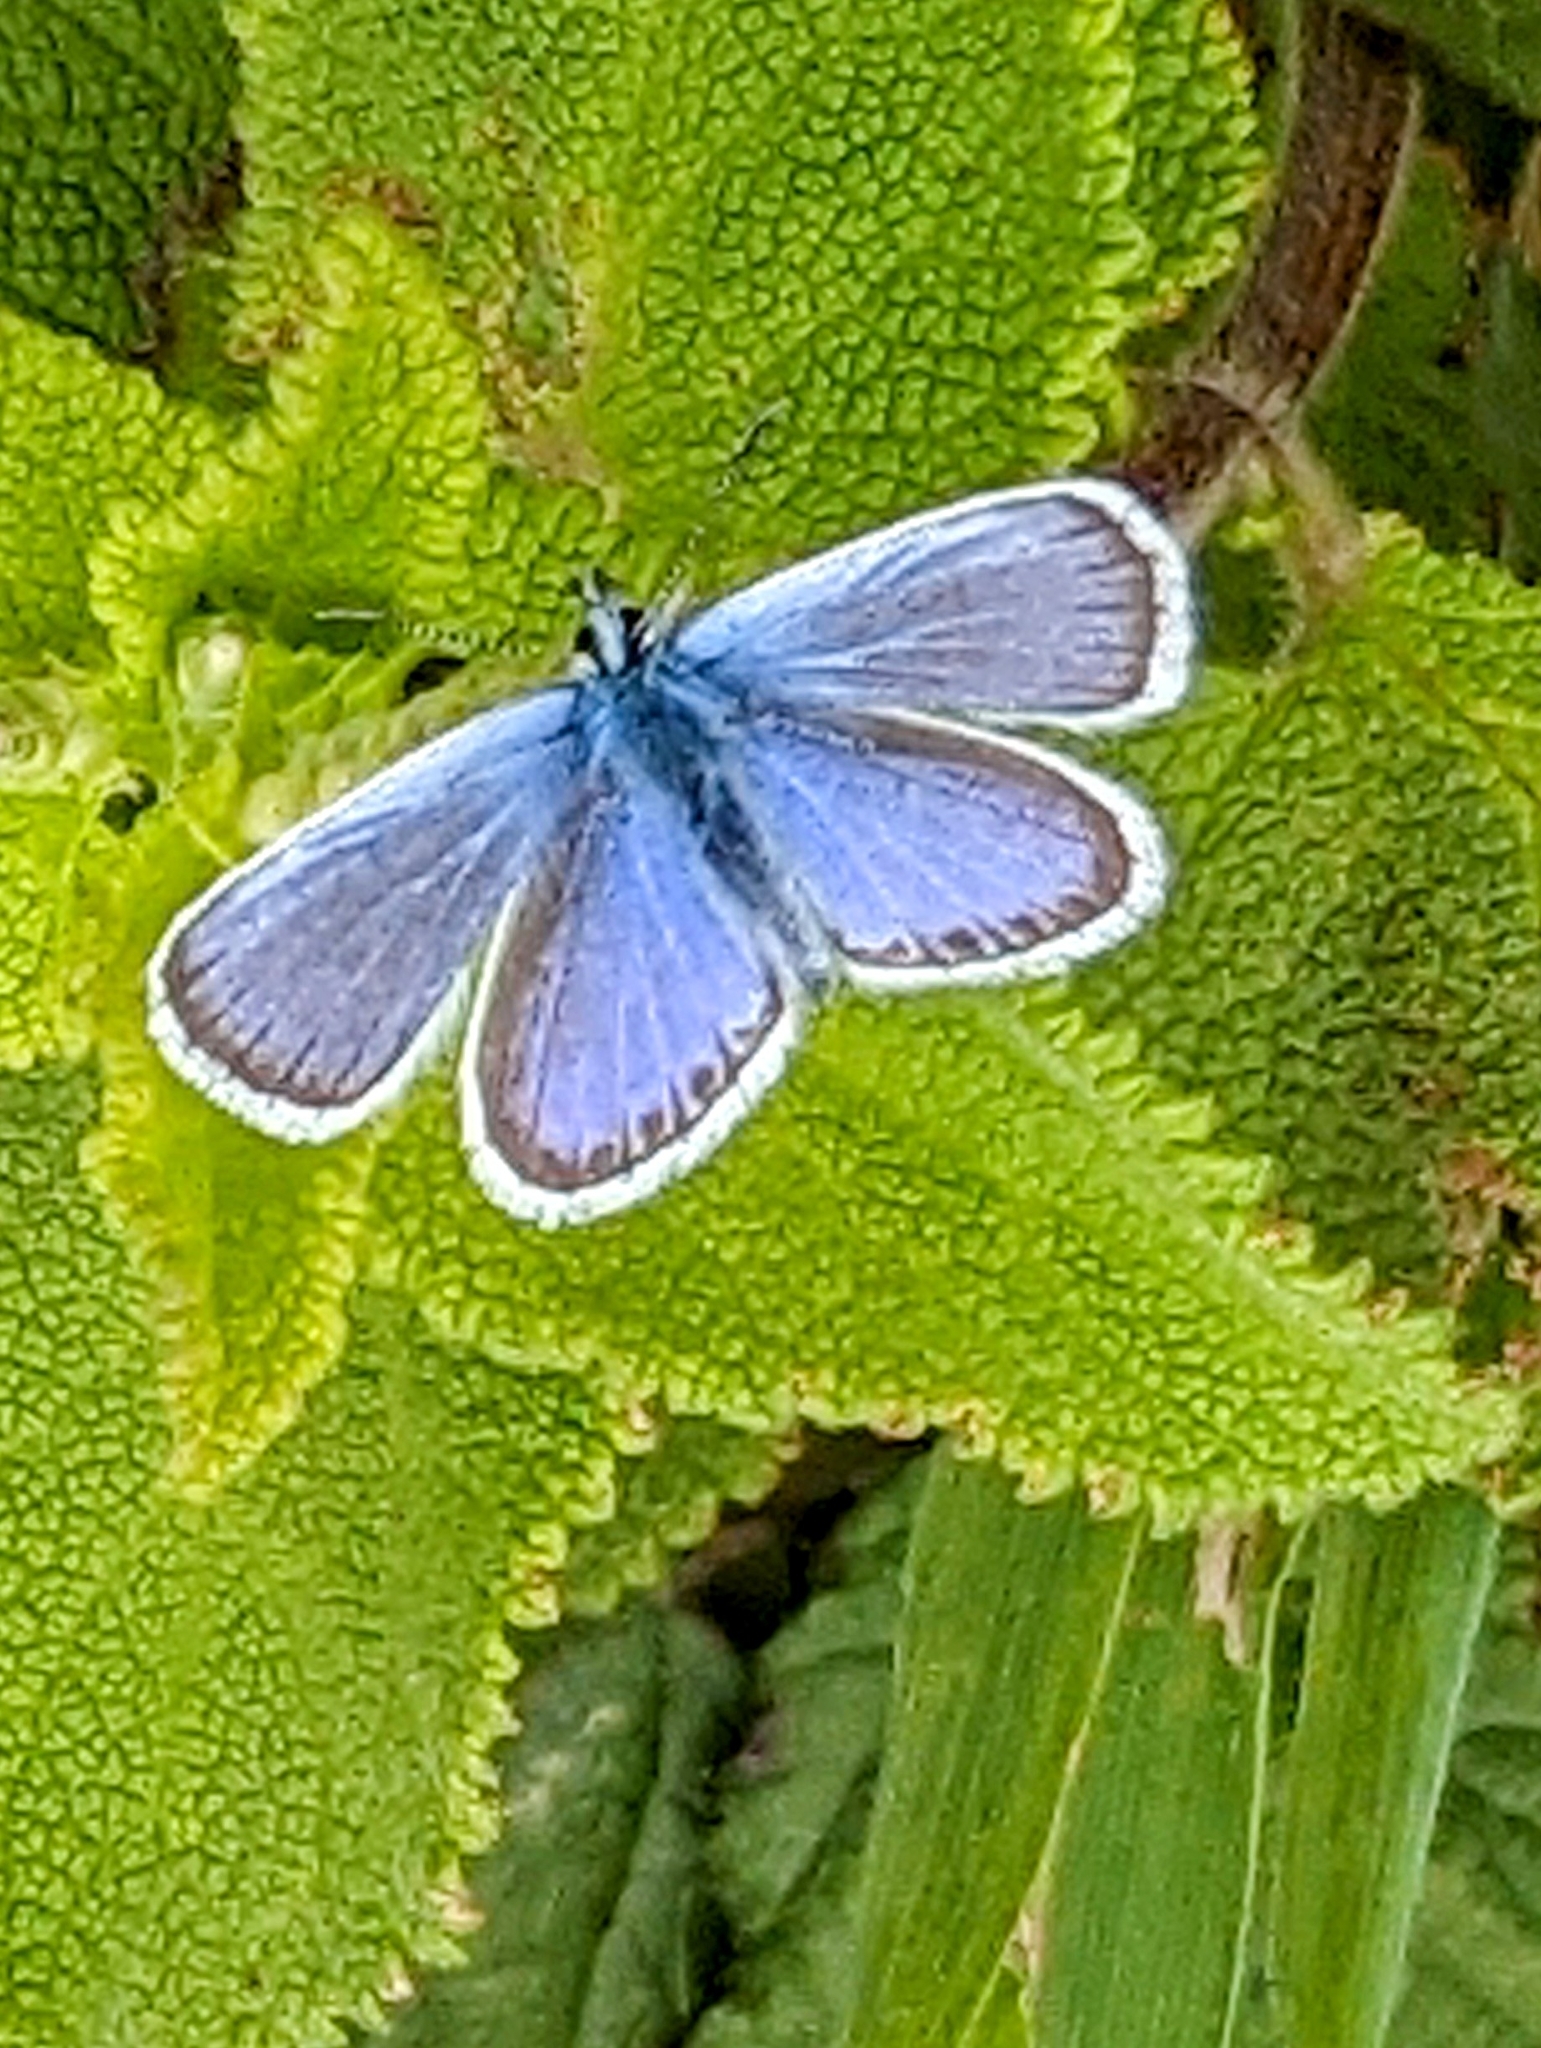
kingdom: Animalia
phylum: Arthropoda
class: Insecta
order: Lepidoptera
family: Lycaenidae
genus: Plebejus
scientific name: Plebejus argus
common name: Silver-studded blue
